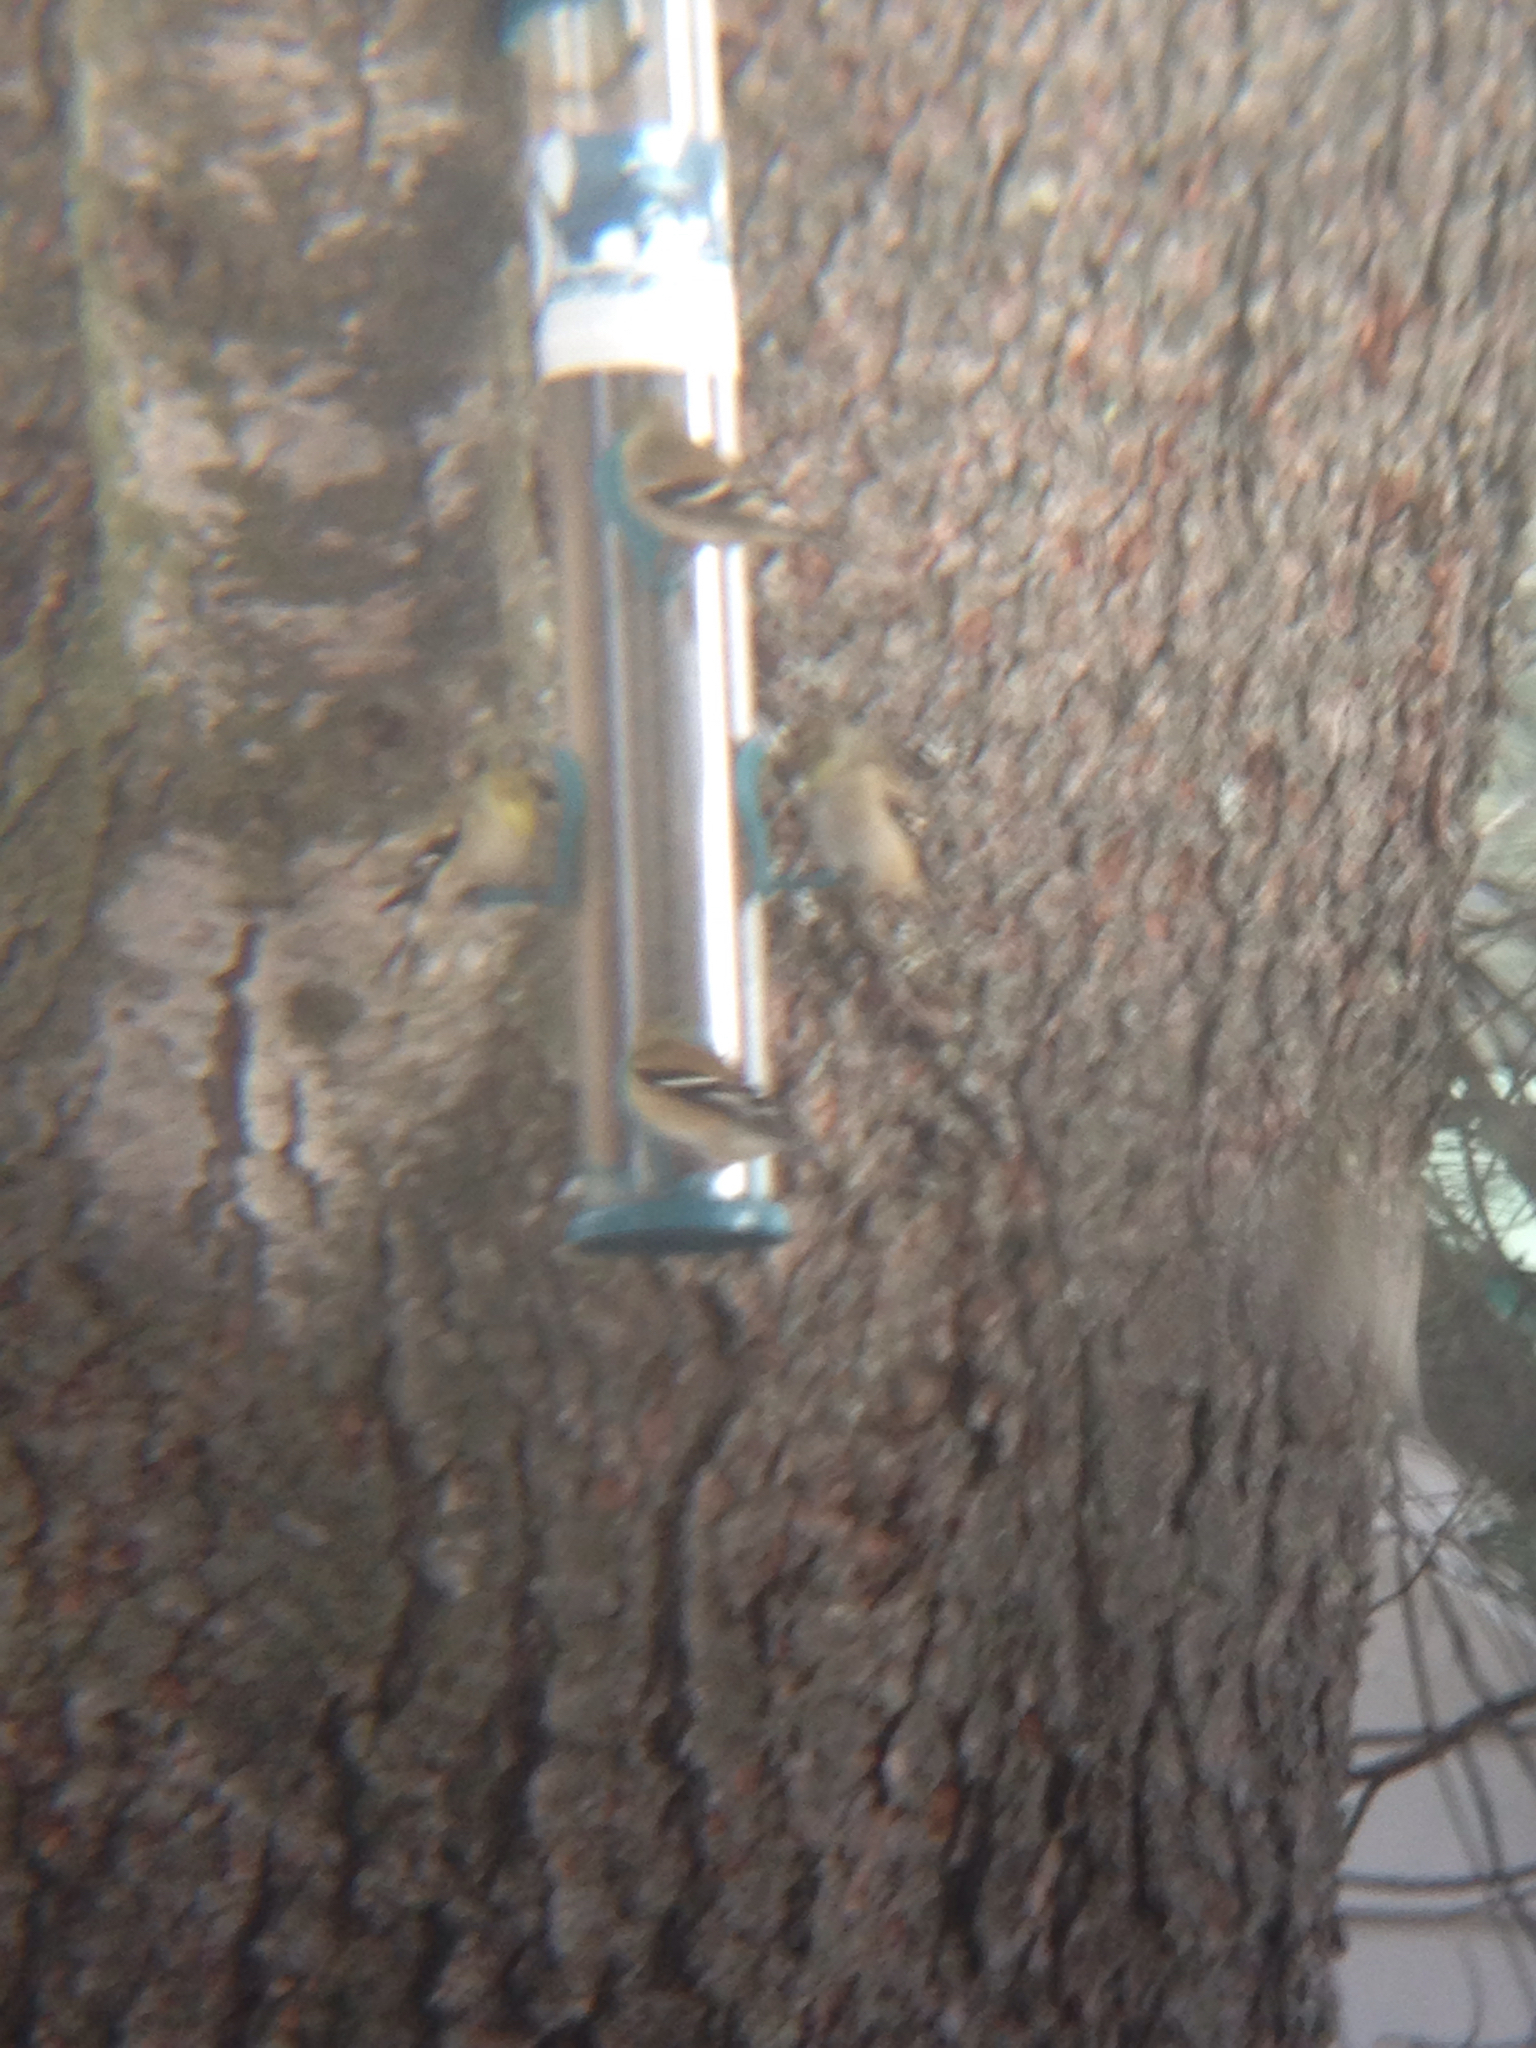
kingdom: Animalia
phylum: Chordata
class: Aves
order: Passeriformes
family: Fringillidae
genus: Spinus
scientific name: Spinus tristis
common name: American goldfinch
